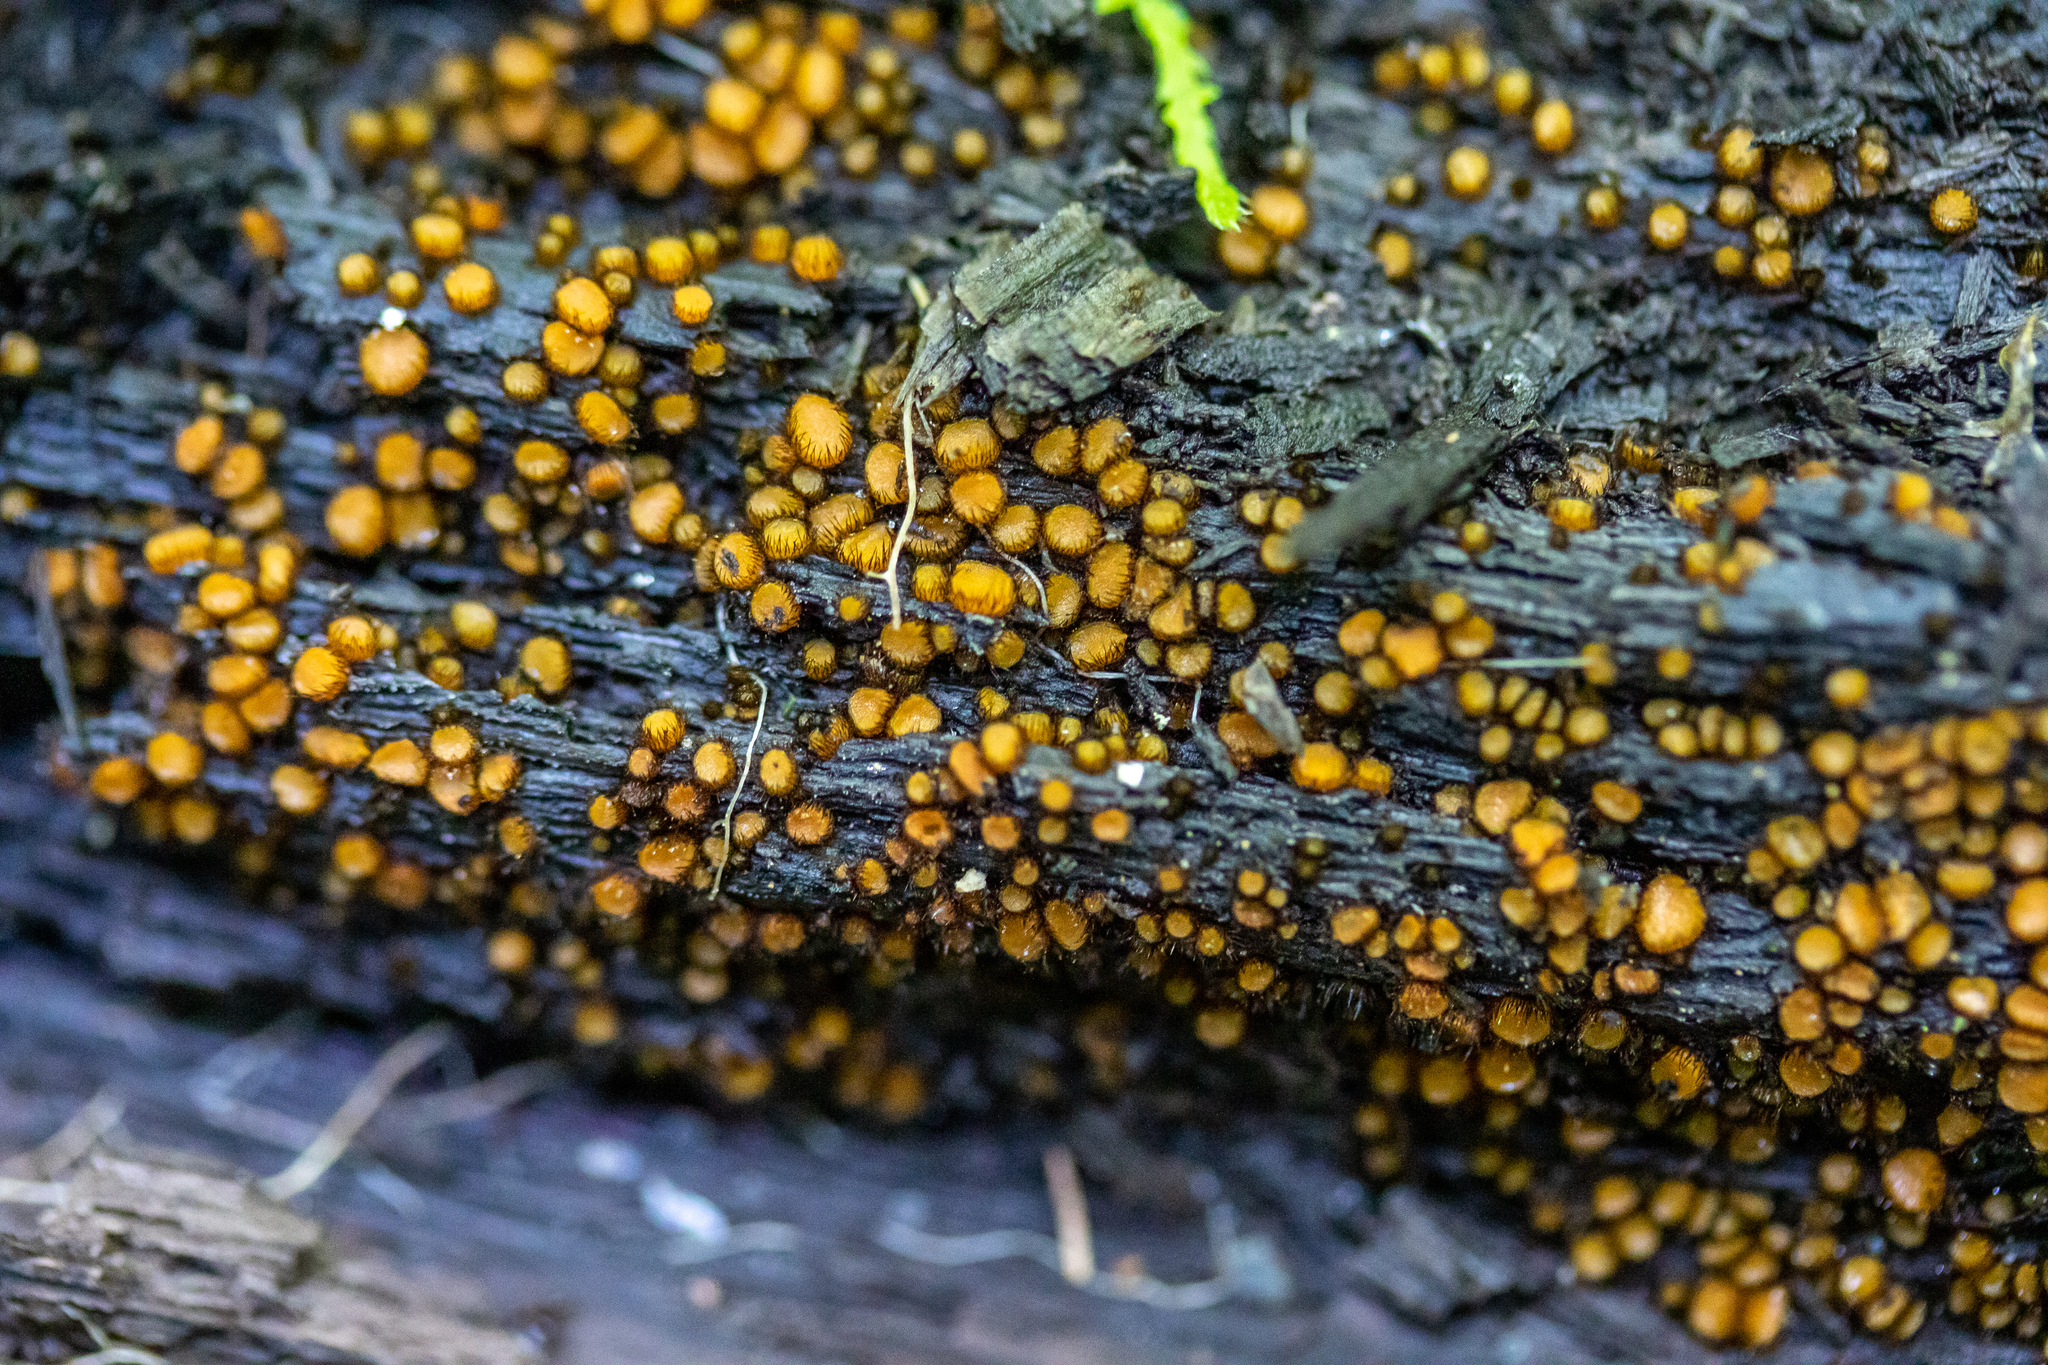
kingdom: Fungi
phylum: Ascomycota
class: Pezizomycetes
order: Pezizales
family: Pyronemataceae
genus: Scutellinia
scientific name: Scutellinia setosa
